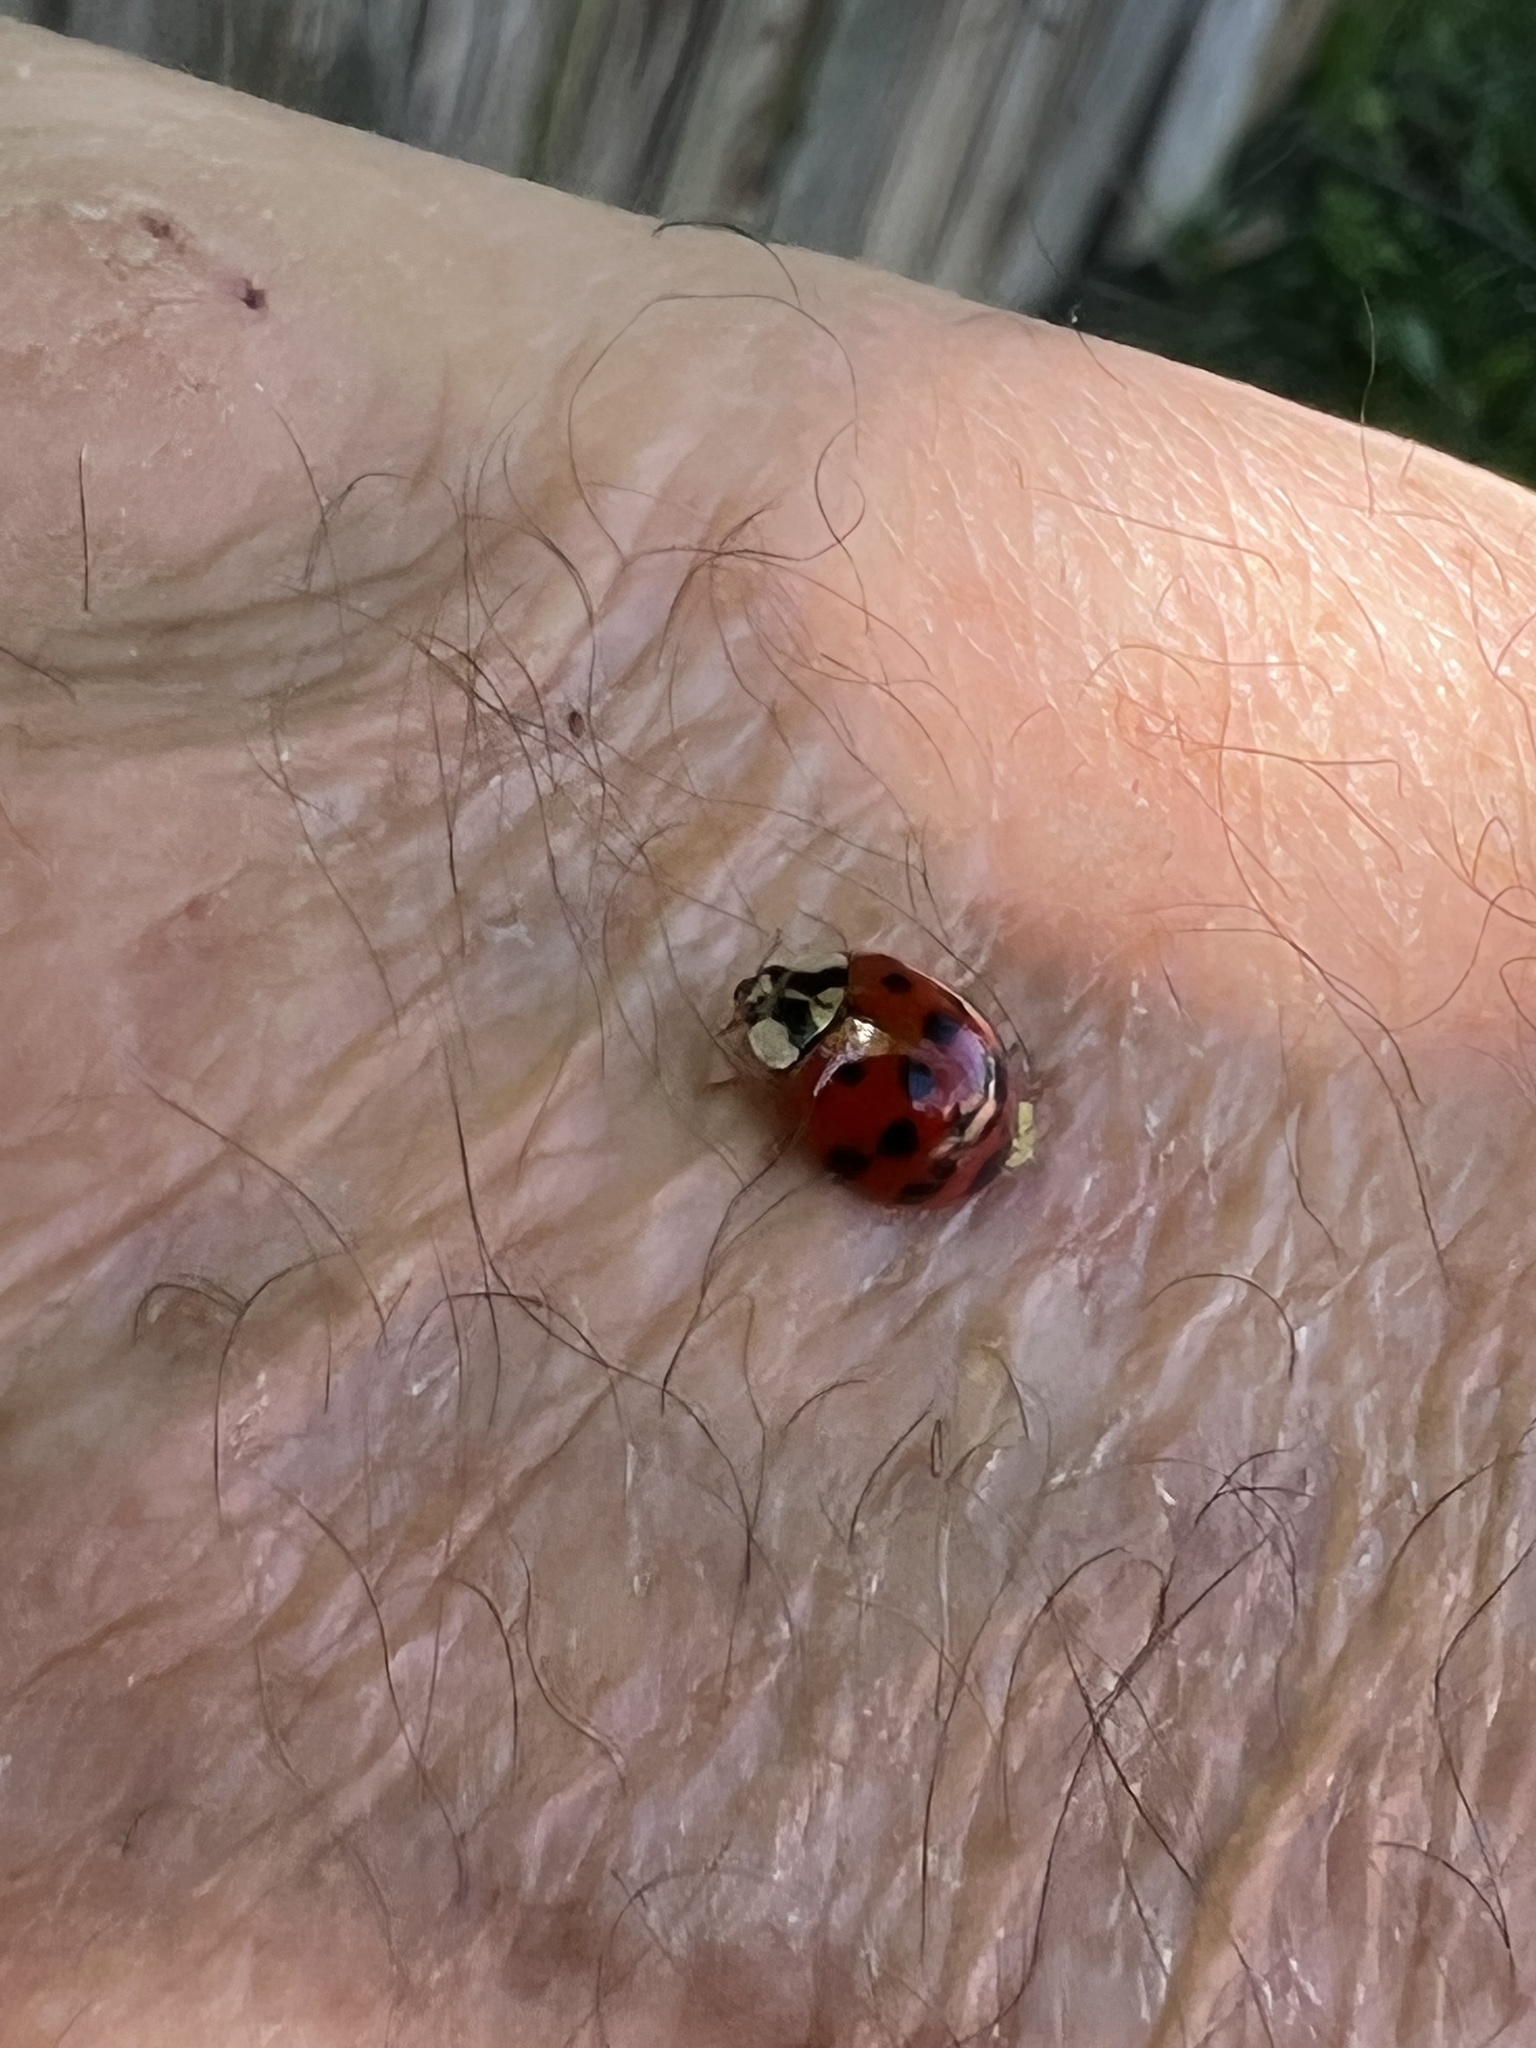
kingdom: Animalia
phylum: Arthropoda
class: Insecta
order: Coleoptera
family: Coccinellidae
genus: Harmonia
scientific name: Harmonia axyridis
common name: Harlequin ladybird
